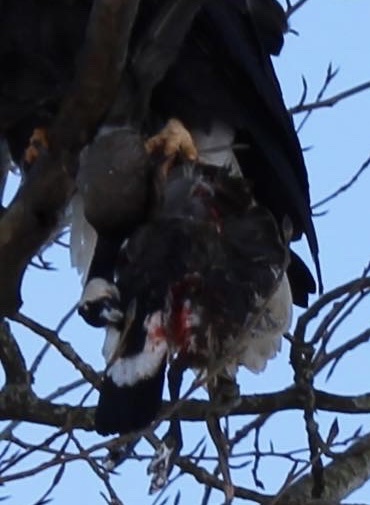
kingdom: Animalia
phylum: Chordata
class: Aves
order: Anseriformes
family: Anatidae
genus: Branta
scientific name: Branta canadensis
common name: Canada goose
